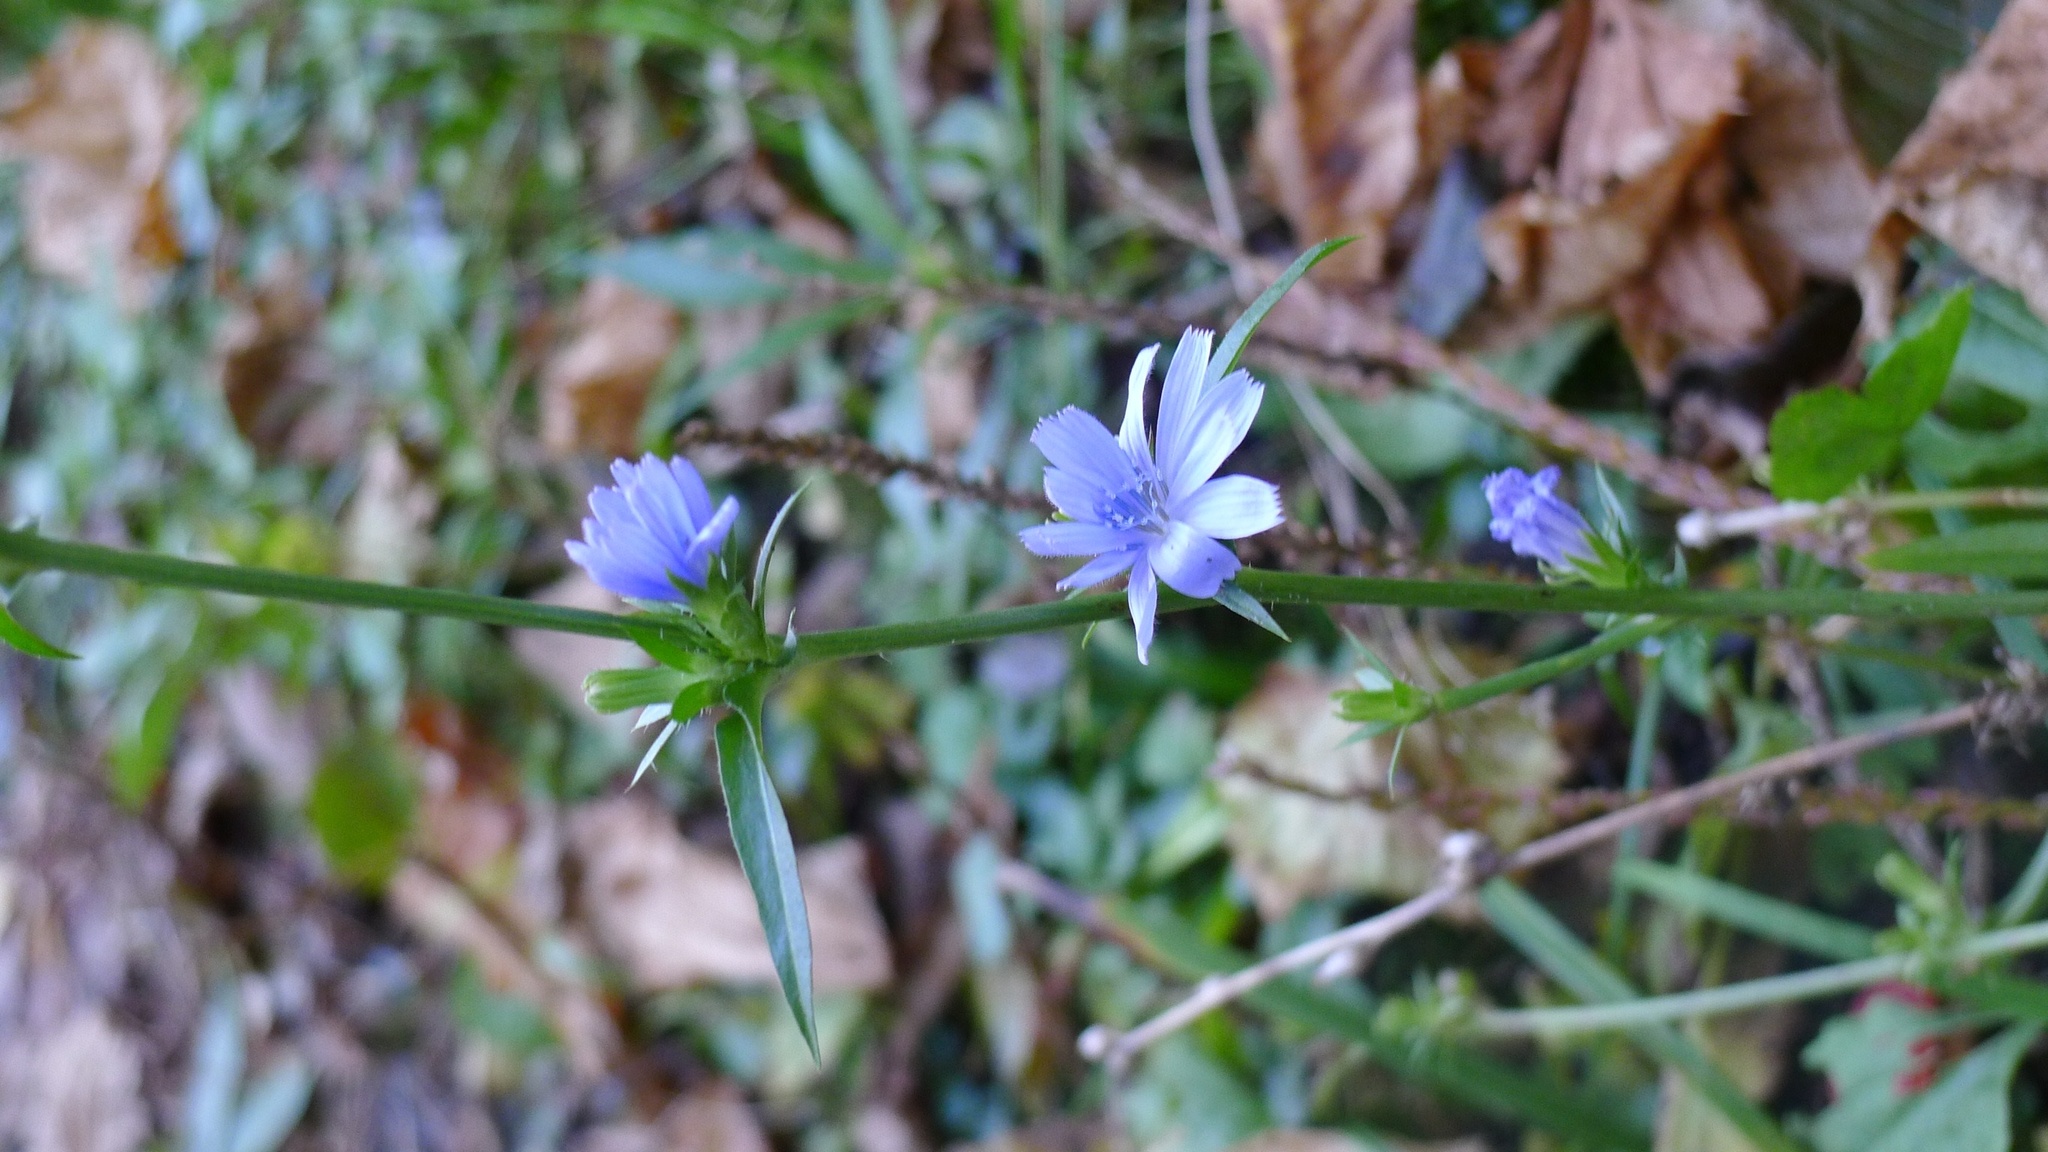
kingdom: Plantae
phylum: Tracheophyta
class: Magnoliopsida
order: Asterales
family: Asteraceae
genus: Cichorium
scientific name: Cichorium intybus
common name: Chicory
